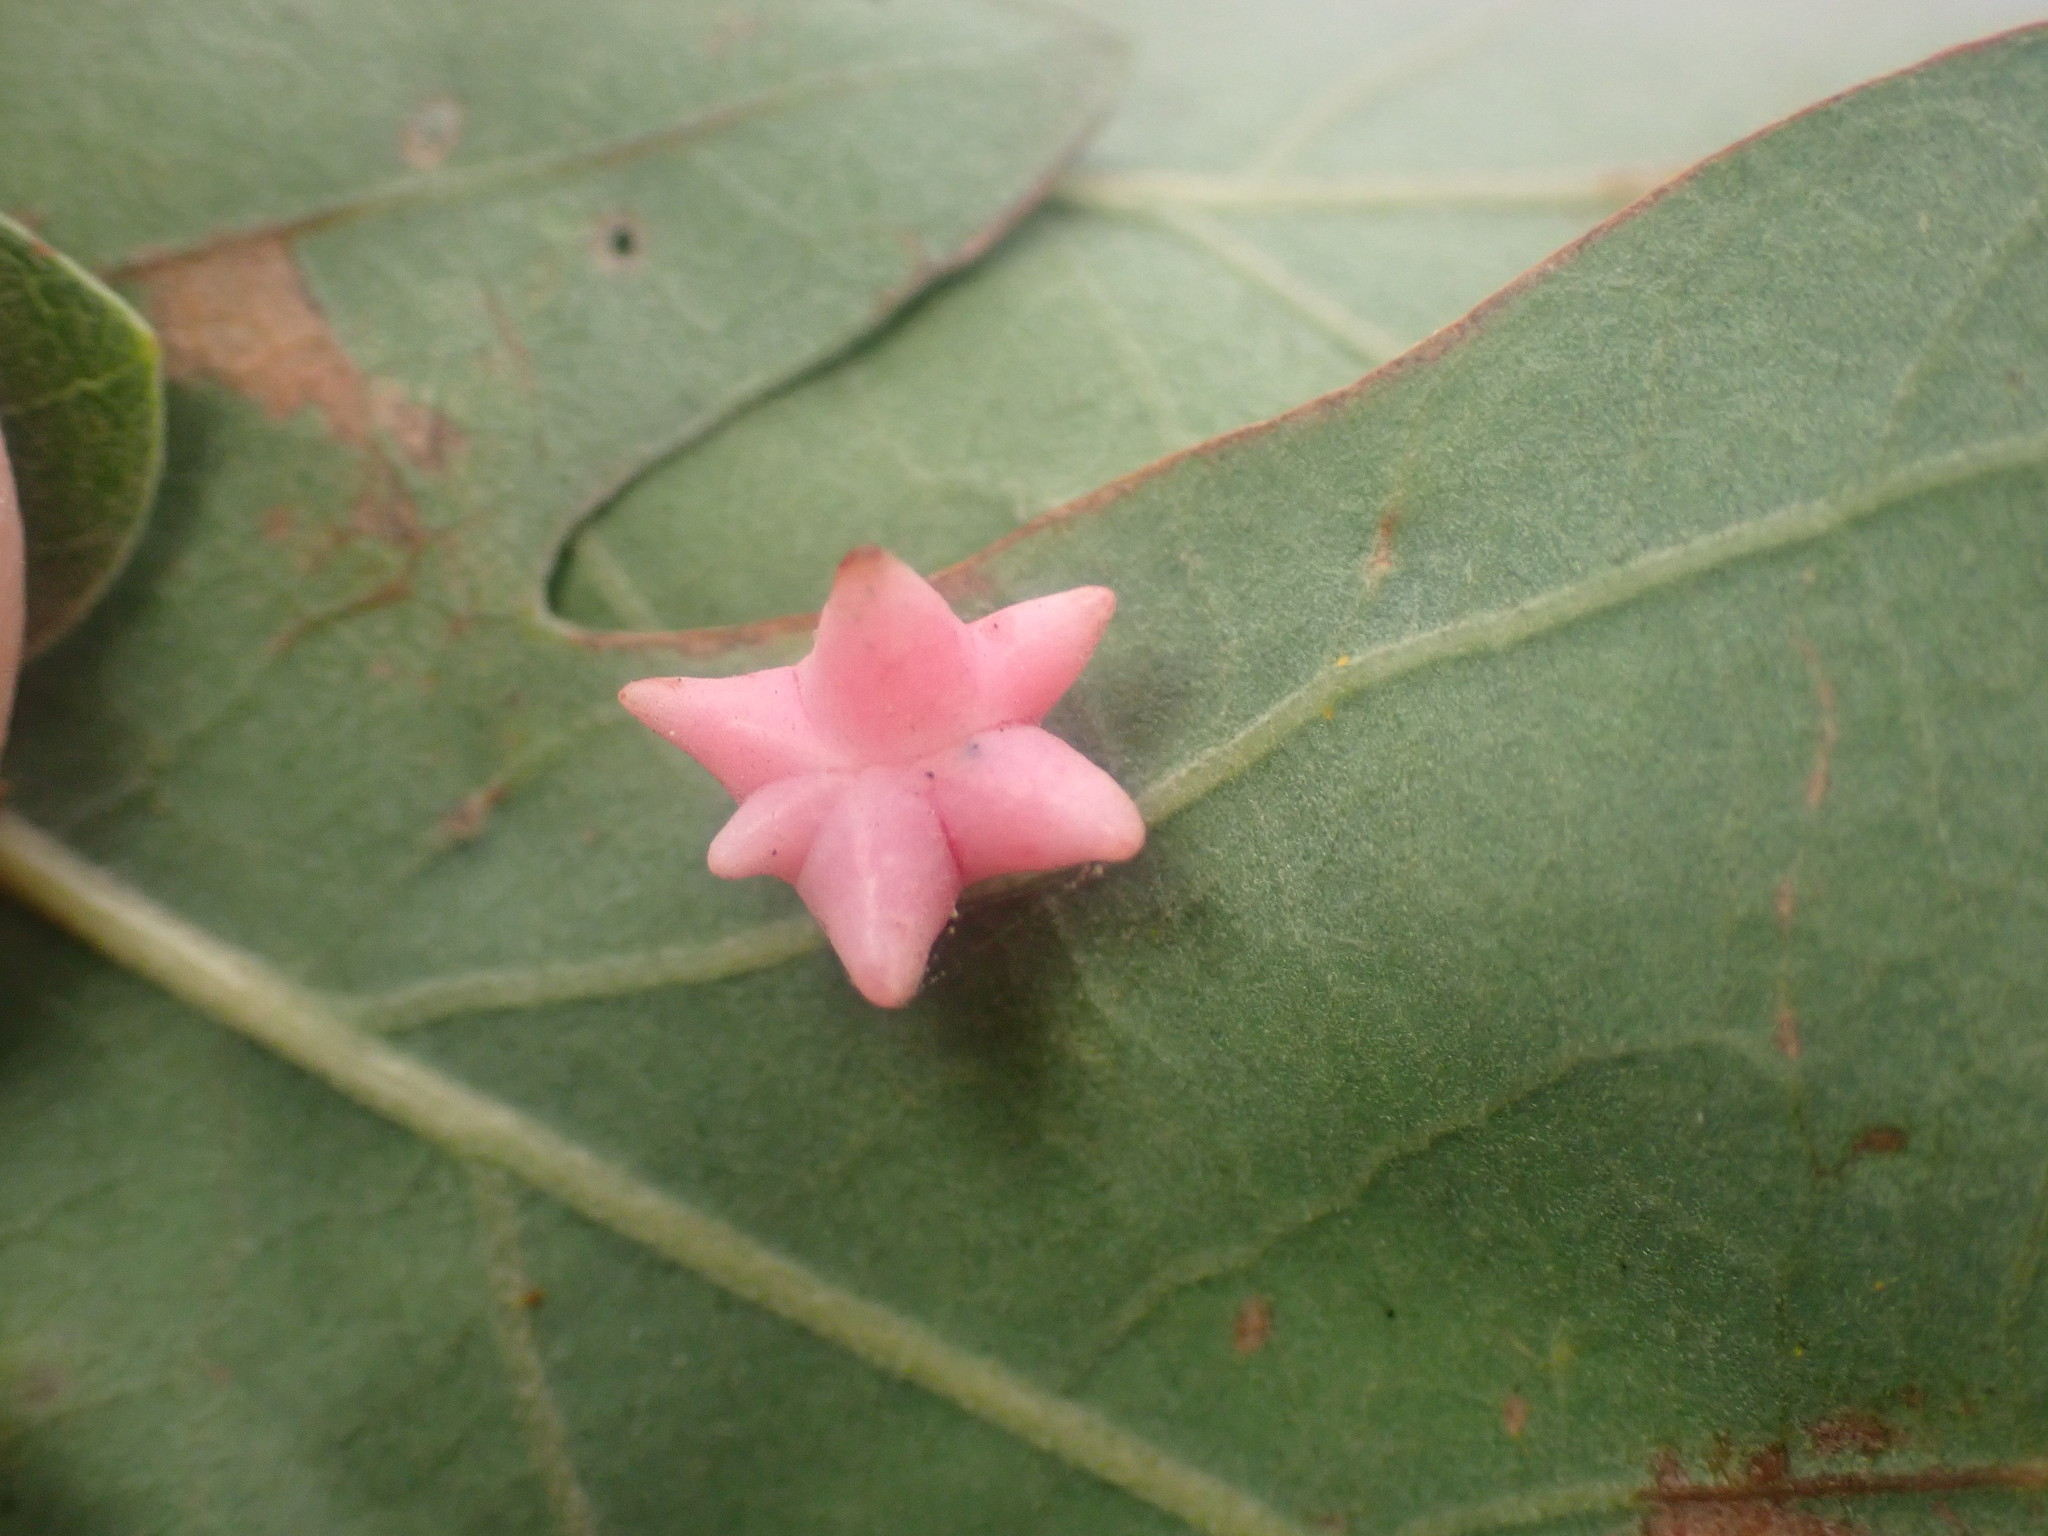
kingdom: Animalia
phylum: Arthropoda
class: Insecta
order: Hymenoptera
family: Cynipidae
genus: Cynips
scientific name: Cynips douglasi
